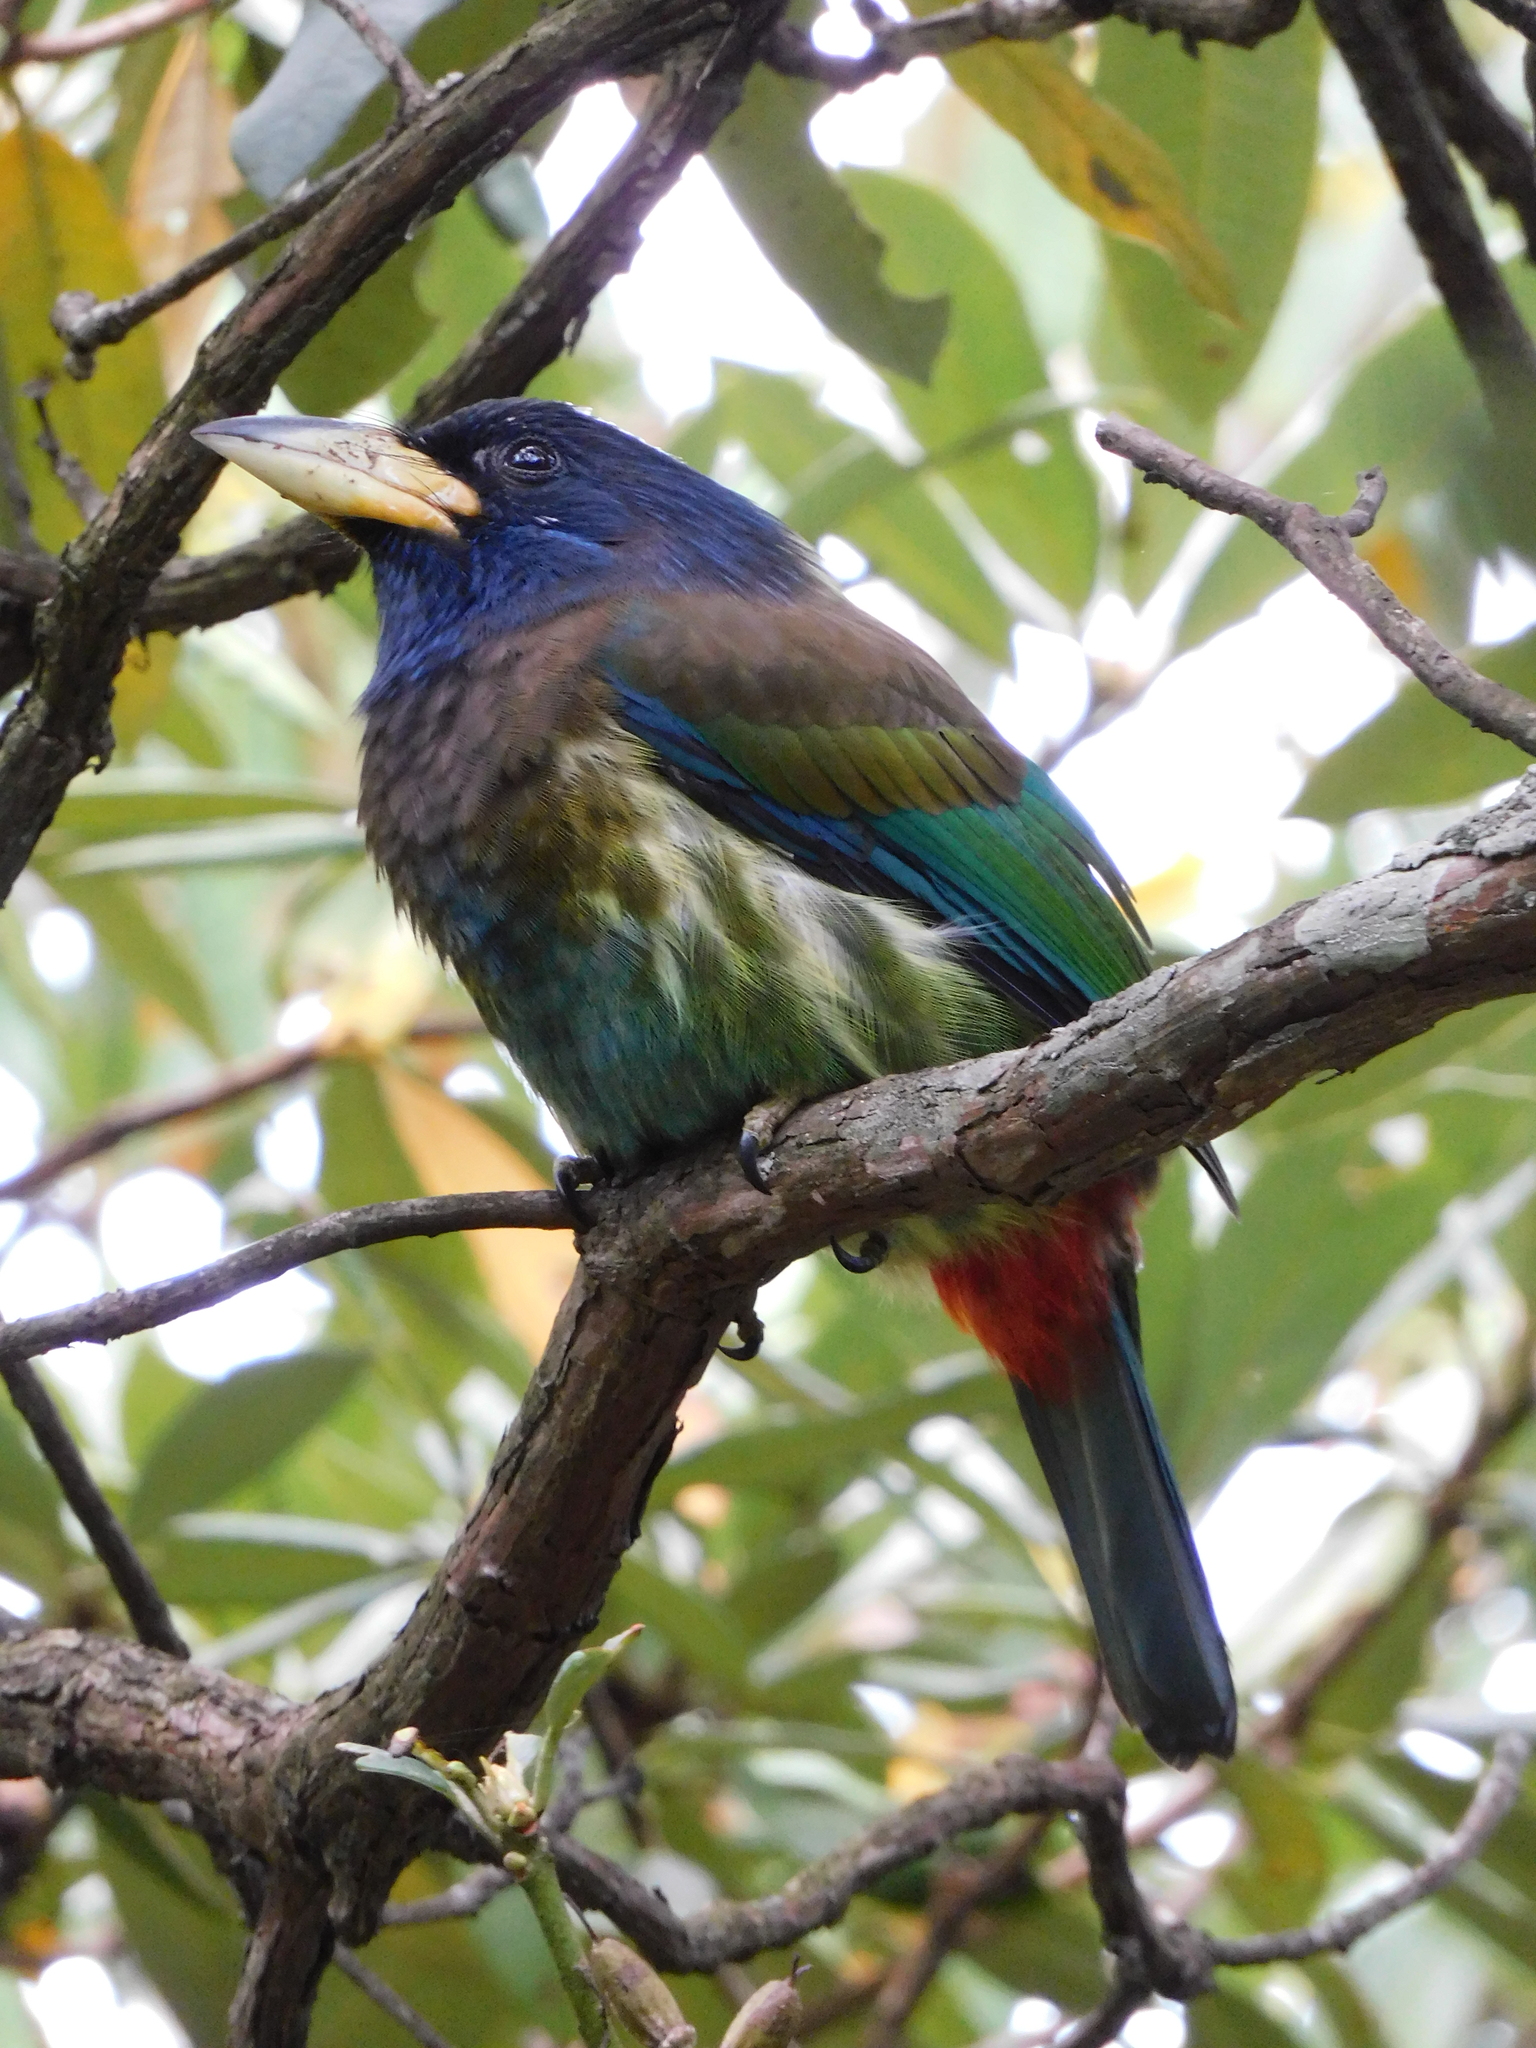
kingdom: Animalia
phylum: Chordata
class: Aves
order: Piciformes
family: Megalaimidae
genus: Psilopogon
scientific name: Psilopogon virens
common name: Great barbet
